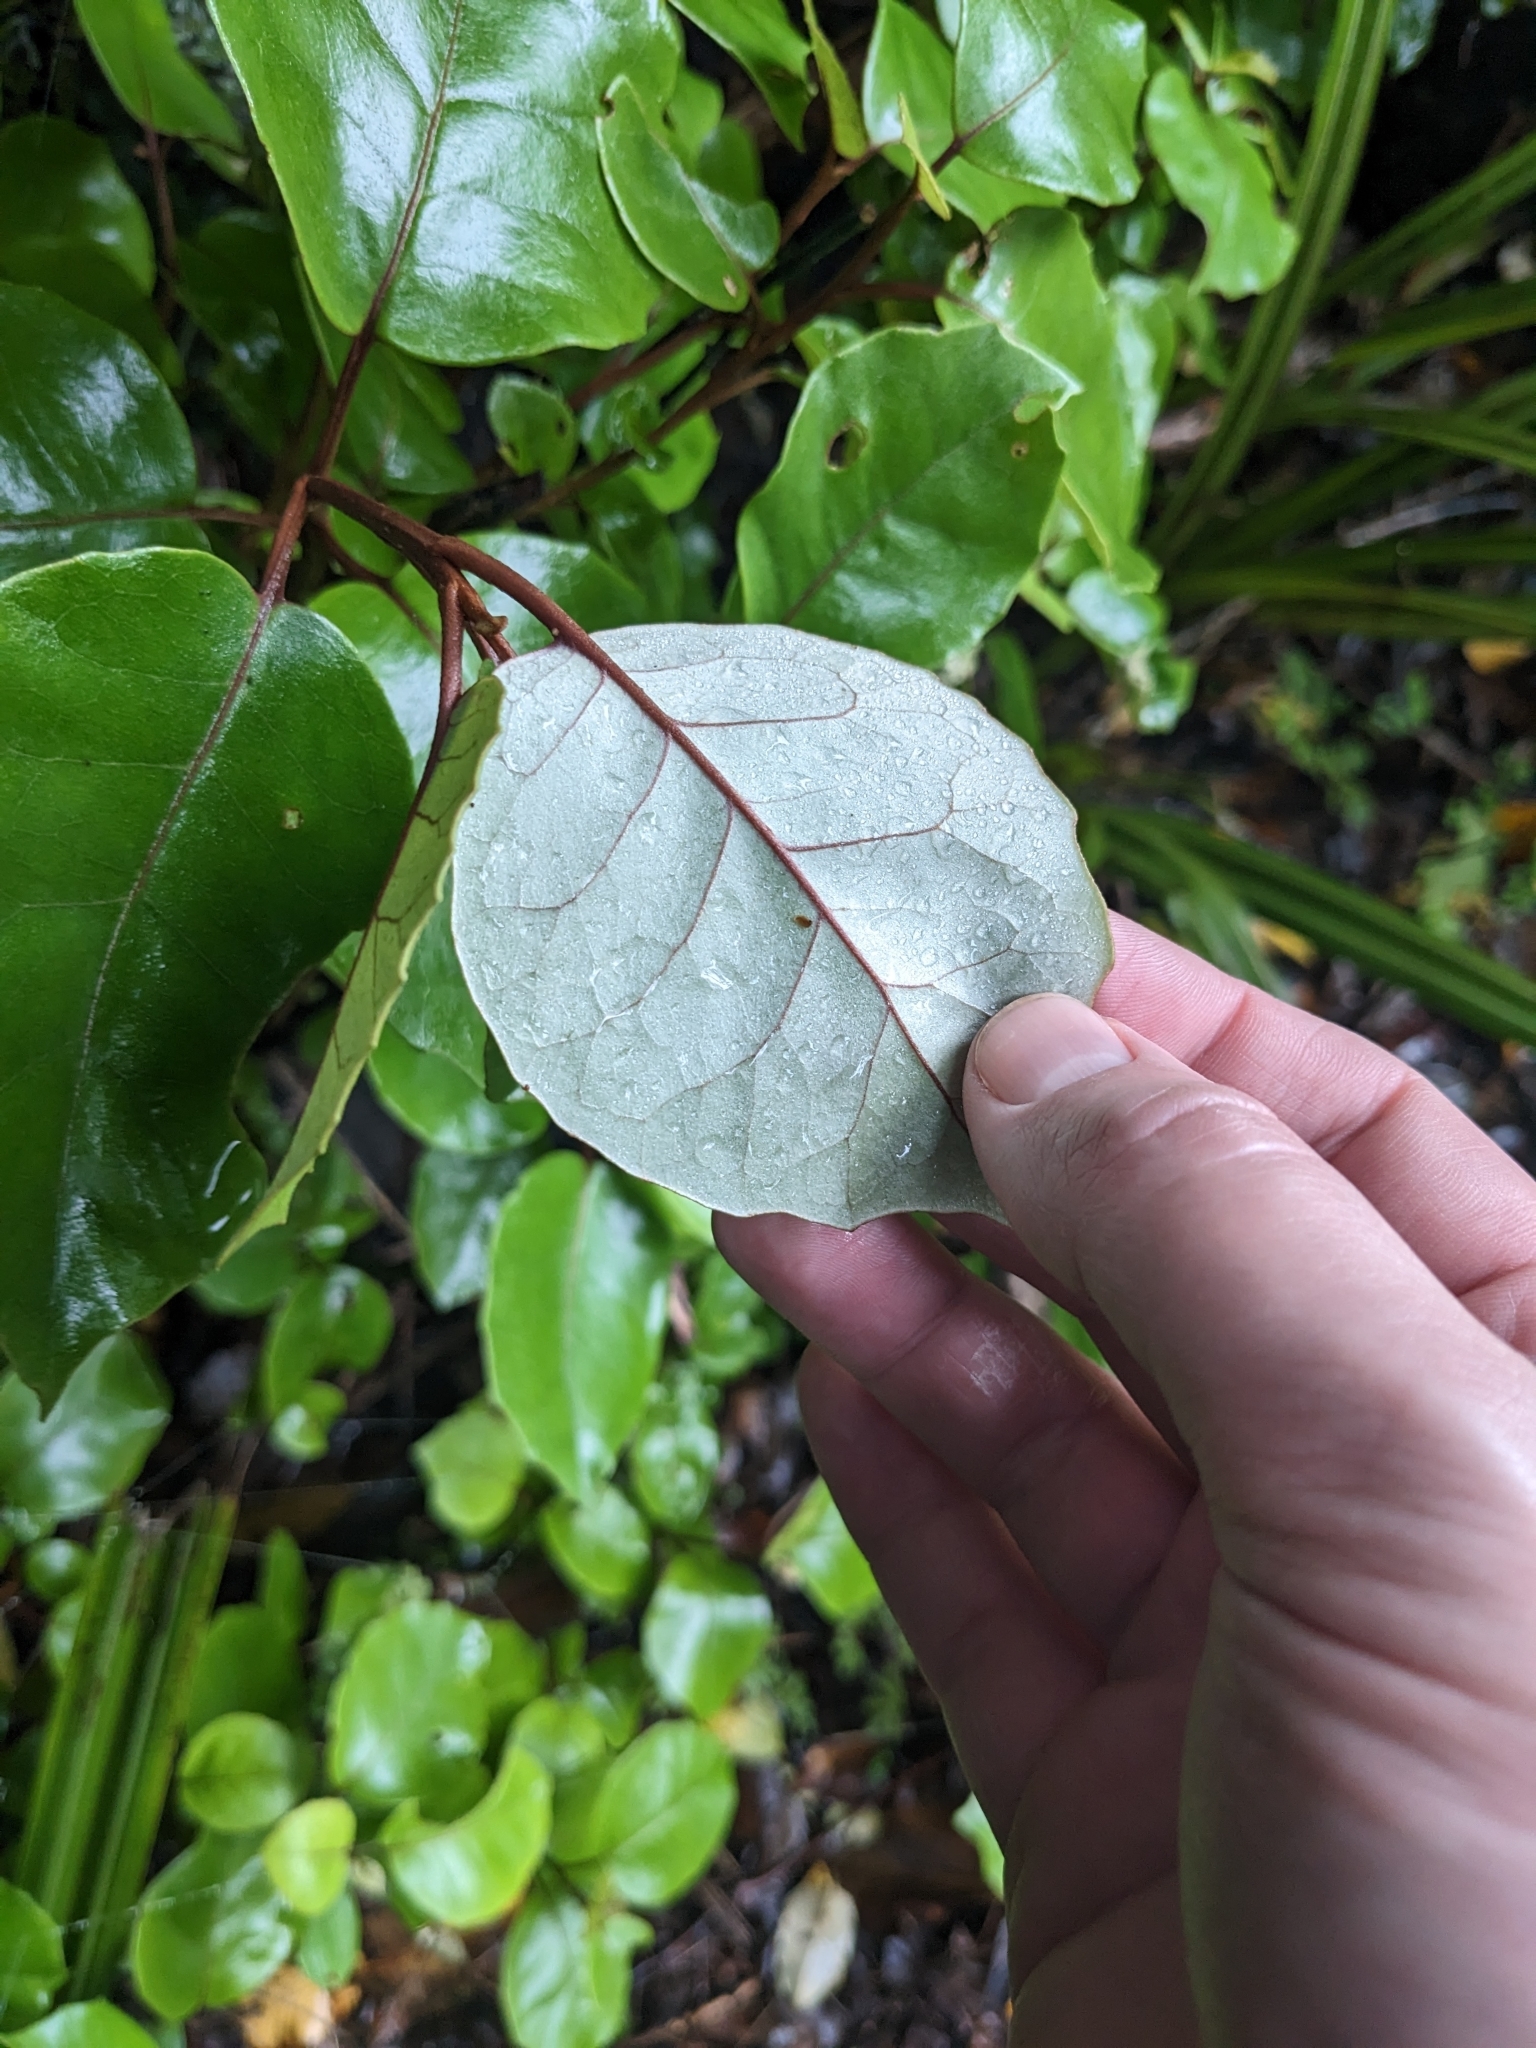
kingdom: Plantae
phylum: Tracheophyta
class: Magnoliopsida
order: Asterales
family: Asteraceae
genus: Olearia
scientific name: Olearia arborescens
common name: Glossy tree daisy
